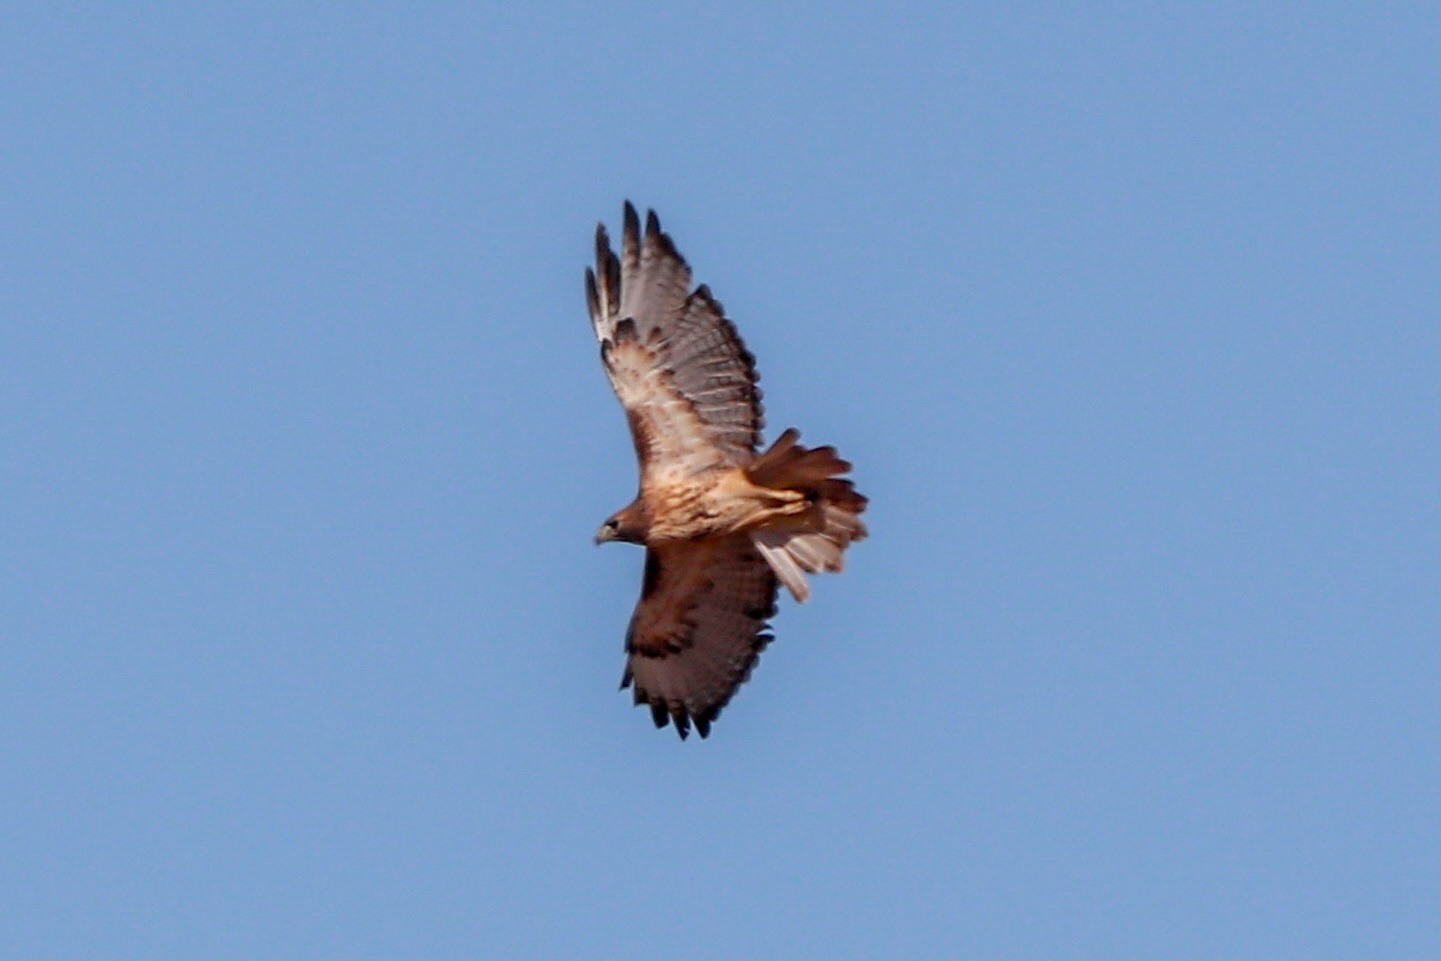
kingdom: Animalia
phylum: Chordata
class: Aves
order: Accipitriformes
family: Accipitridae
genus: Buteo
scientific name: Buteo jamaicensis
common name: Red-tailed hawk
